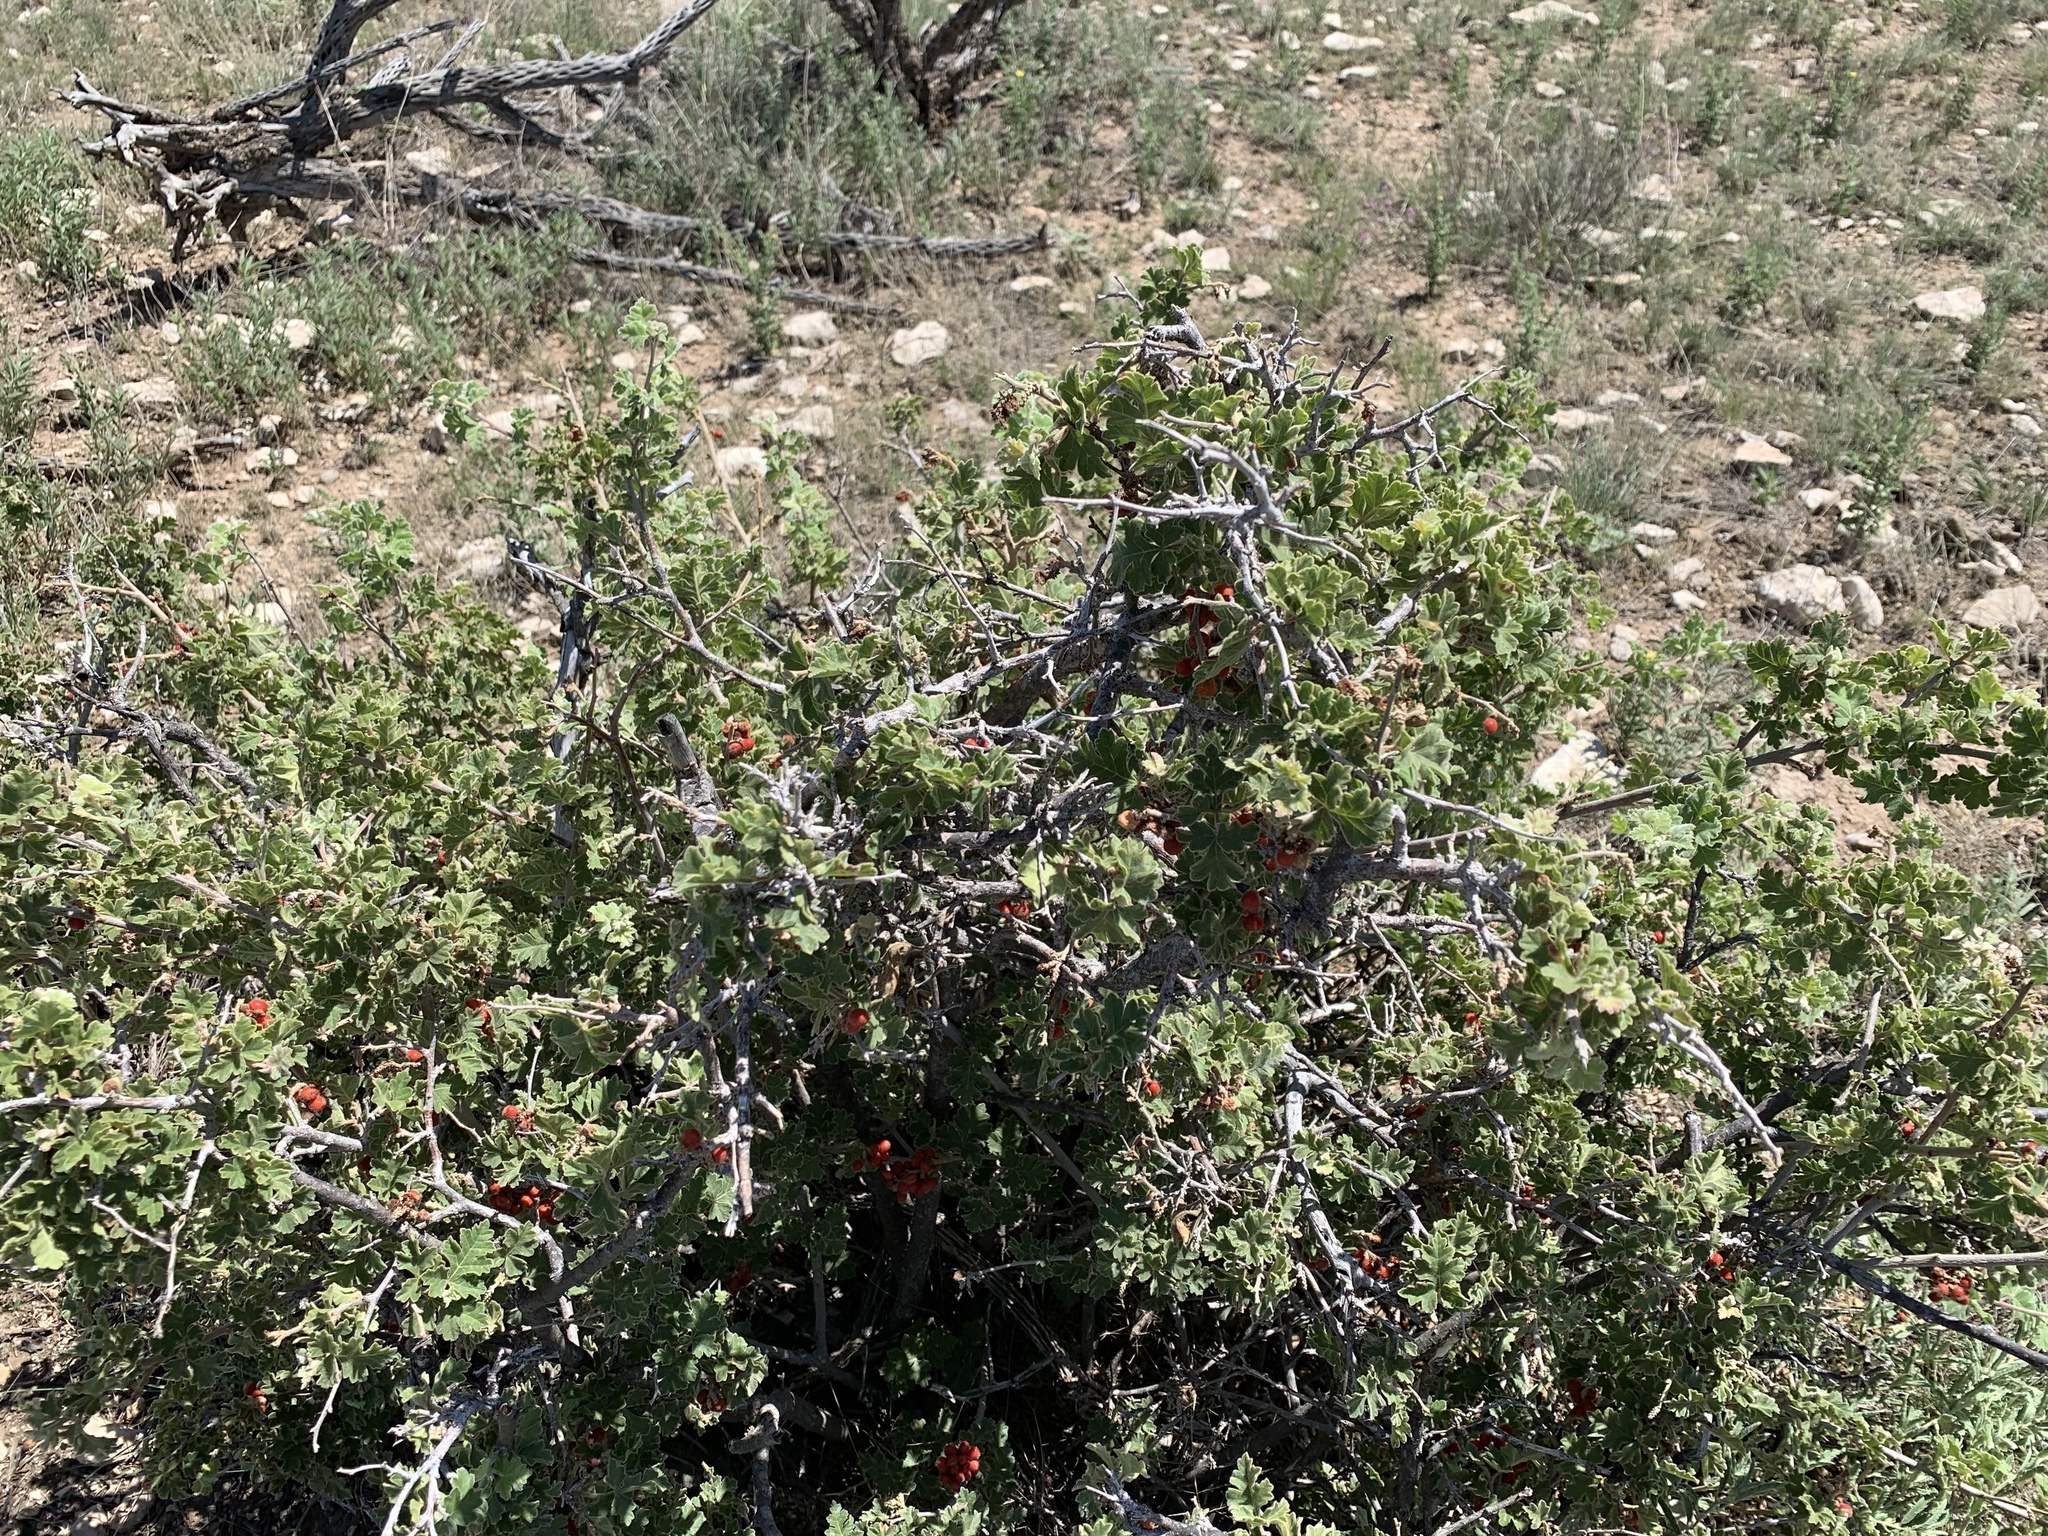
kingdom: Plantae
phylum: Tracheophyta
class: Magnoliopsida
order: Sapindales
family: Anacardiaceae
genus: Rhus
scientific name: Rhus aromatica
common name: Aromatic sumac
